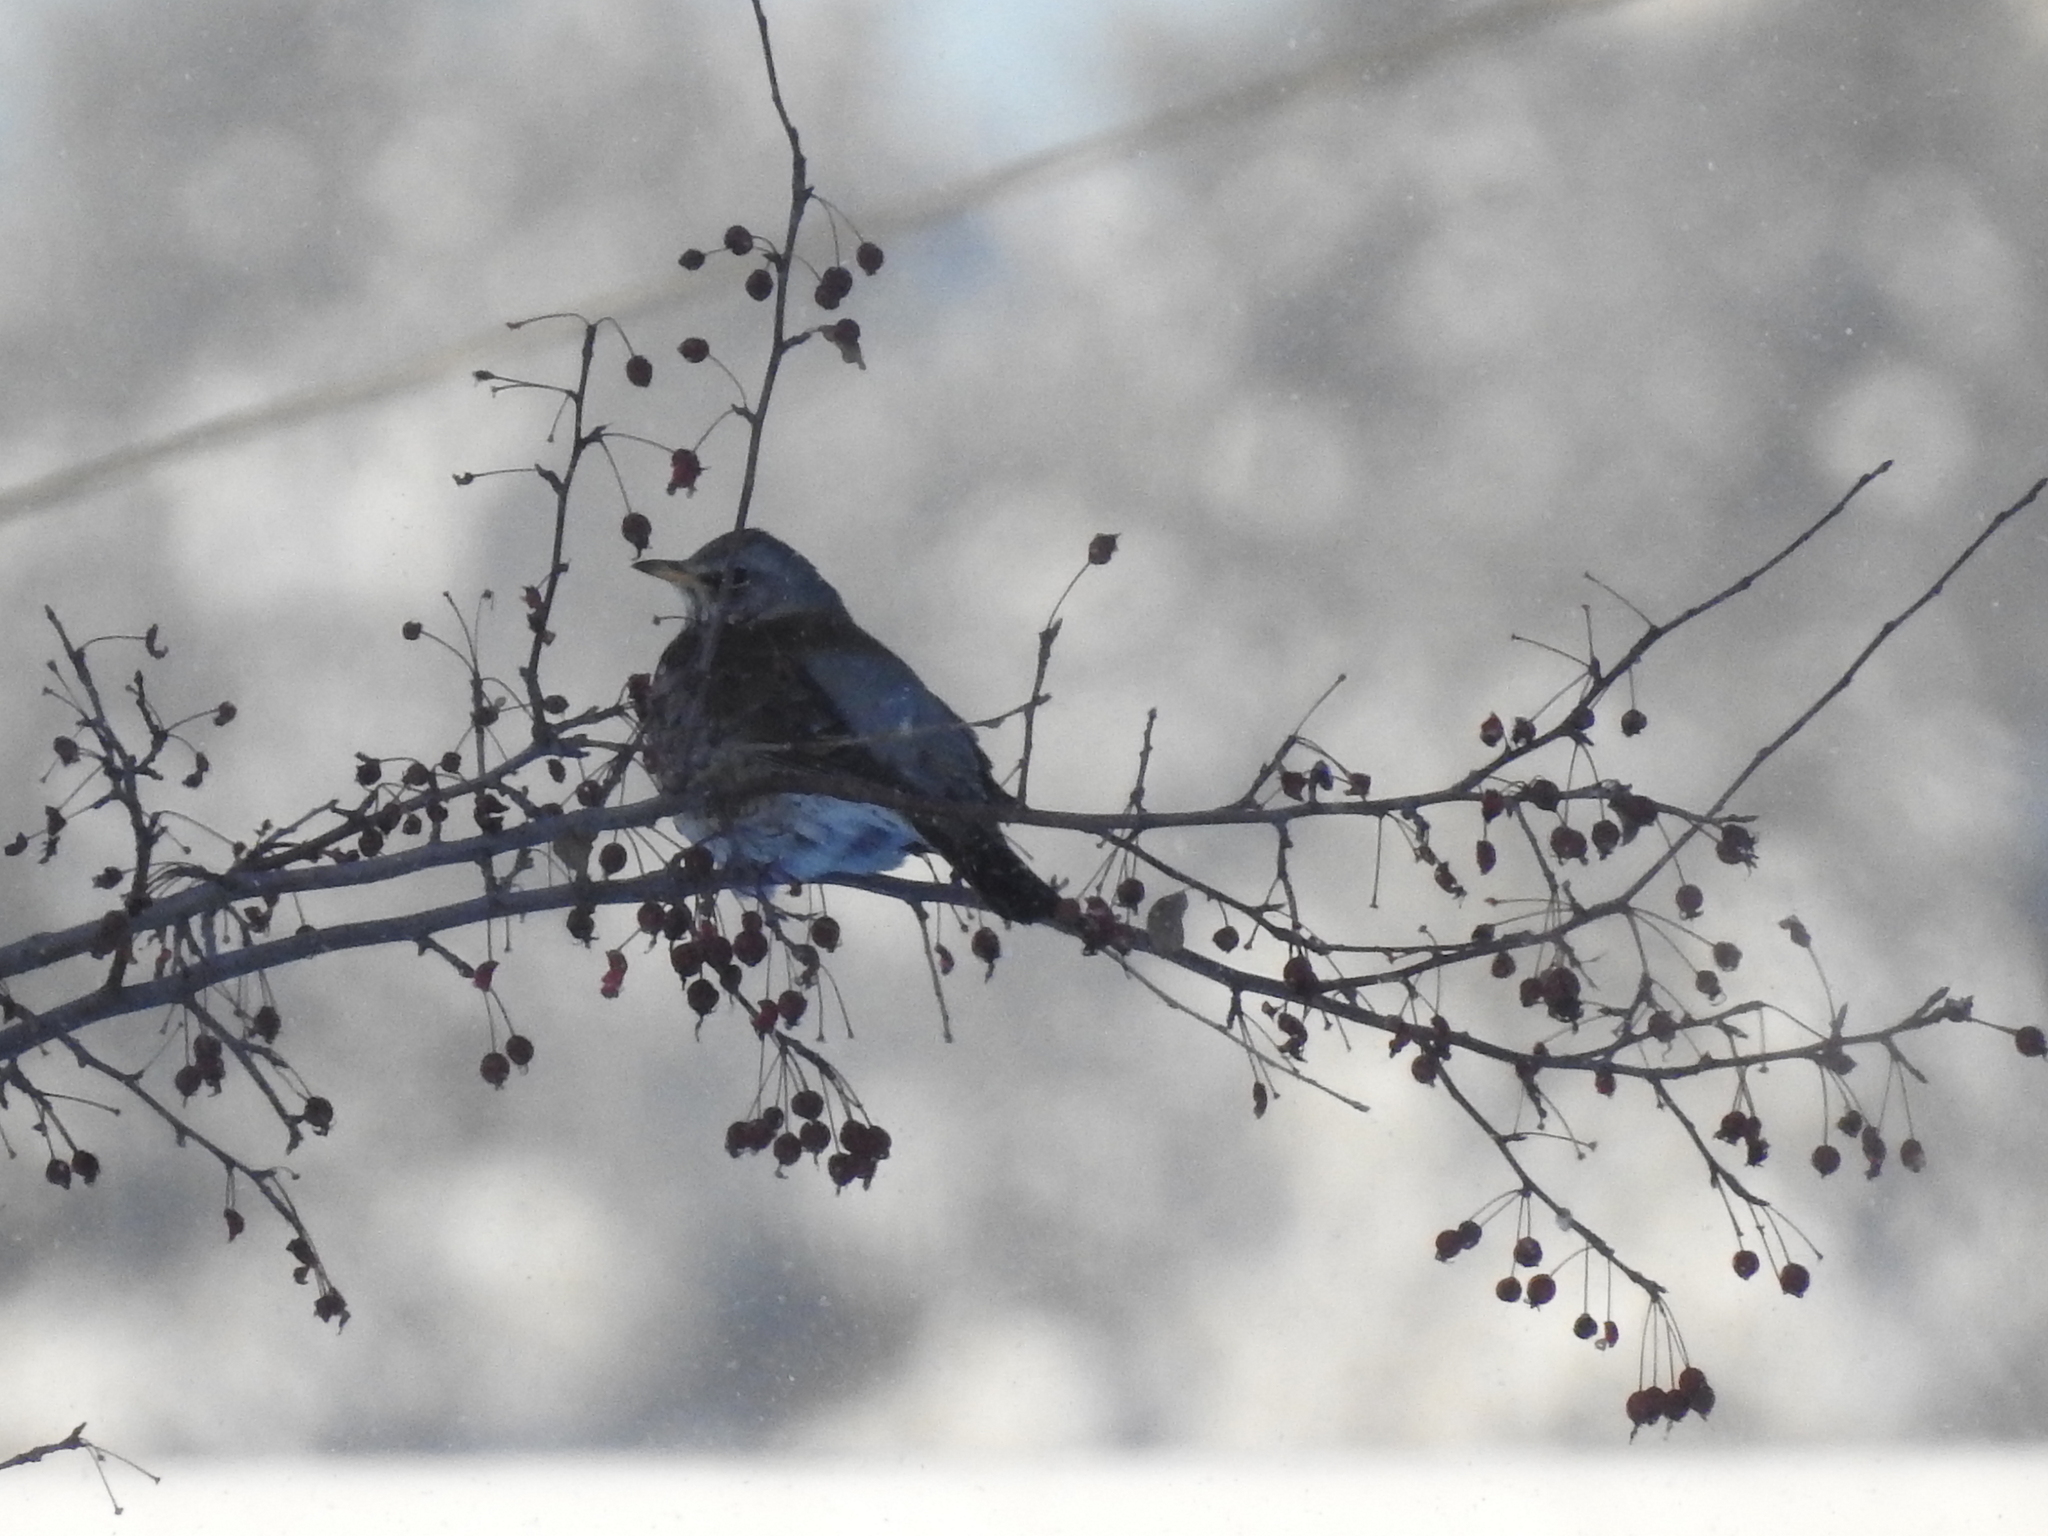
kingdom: Animalia
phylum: Chordata
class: Aves
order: Passeriformes
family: Turdidae
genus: Turdus
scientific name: Turdus pilaris
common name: Fieldfare
